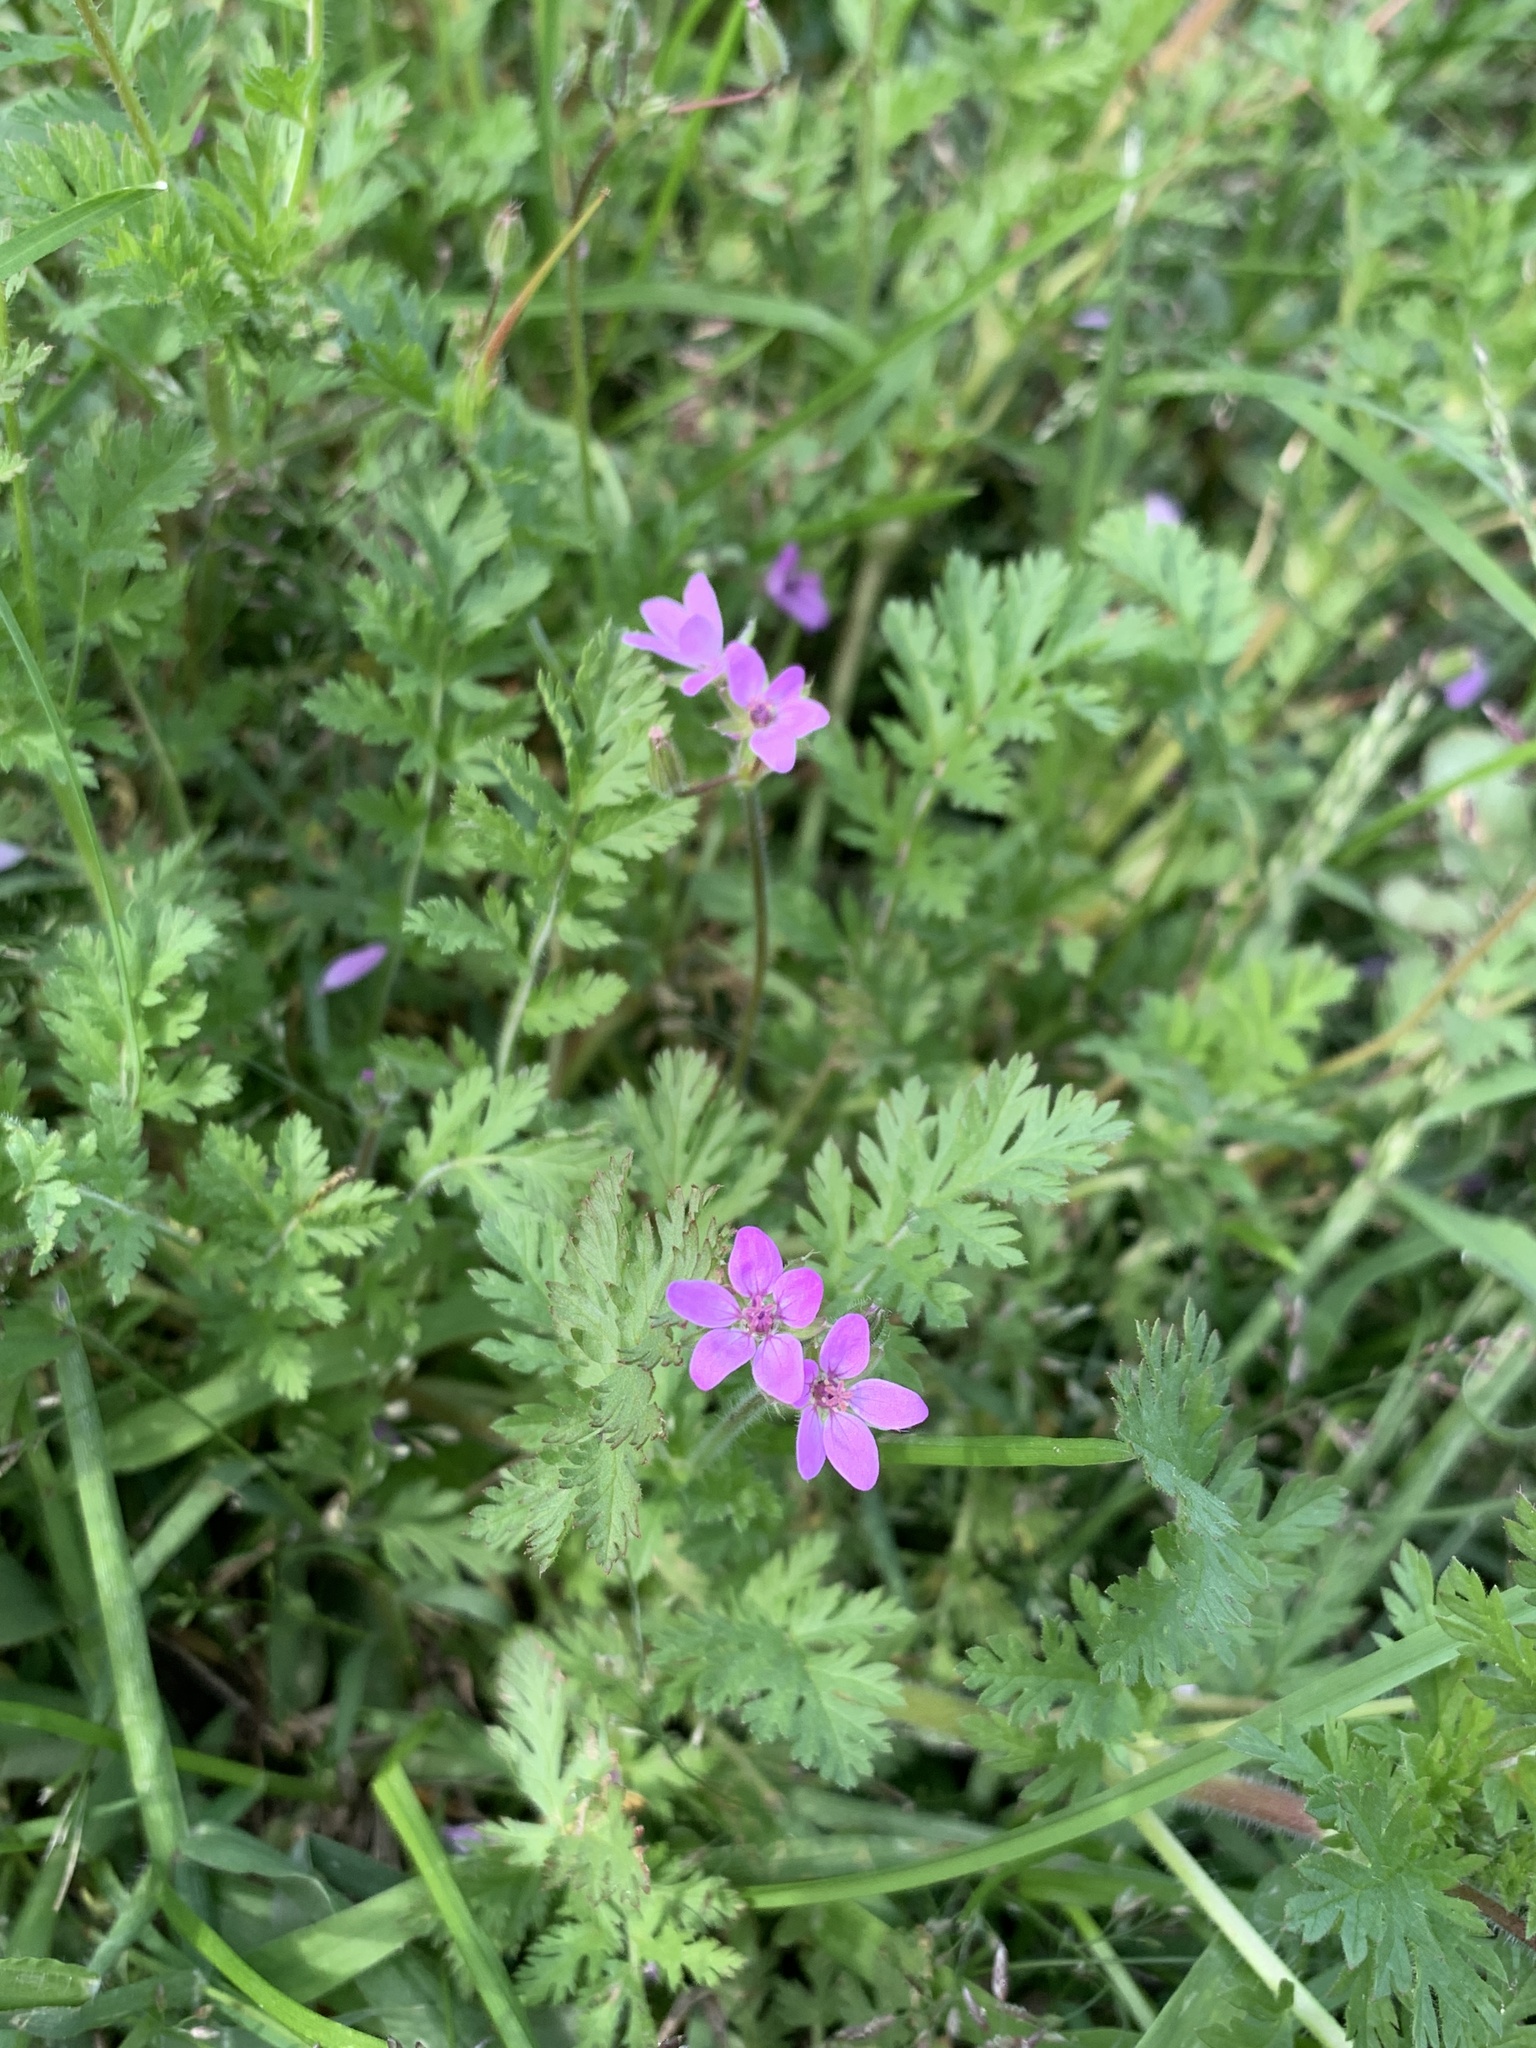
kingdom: Plantae
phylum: Tracheophyta
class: Magnoliopsida
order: Geraniales
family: Geraniaceae
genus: Erodium
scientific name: Erodium cicutarium
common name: Common stork's-bill
